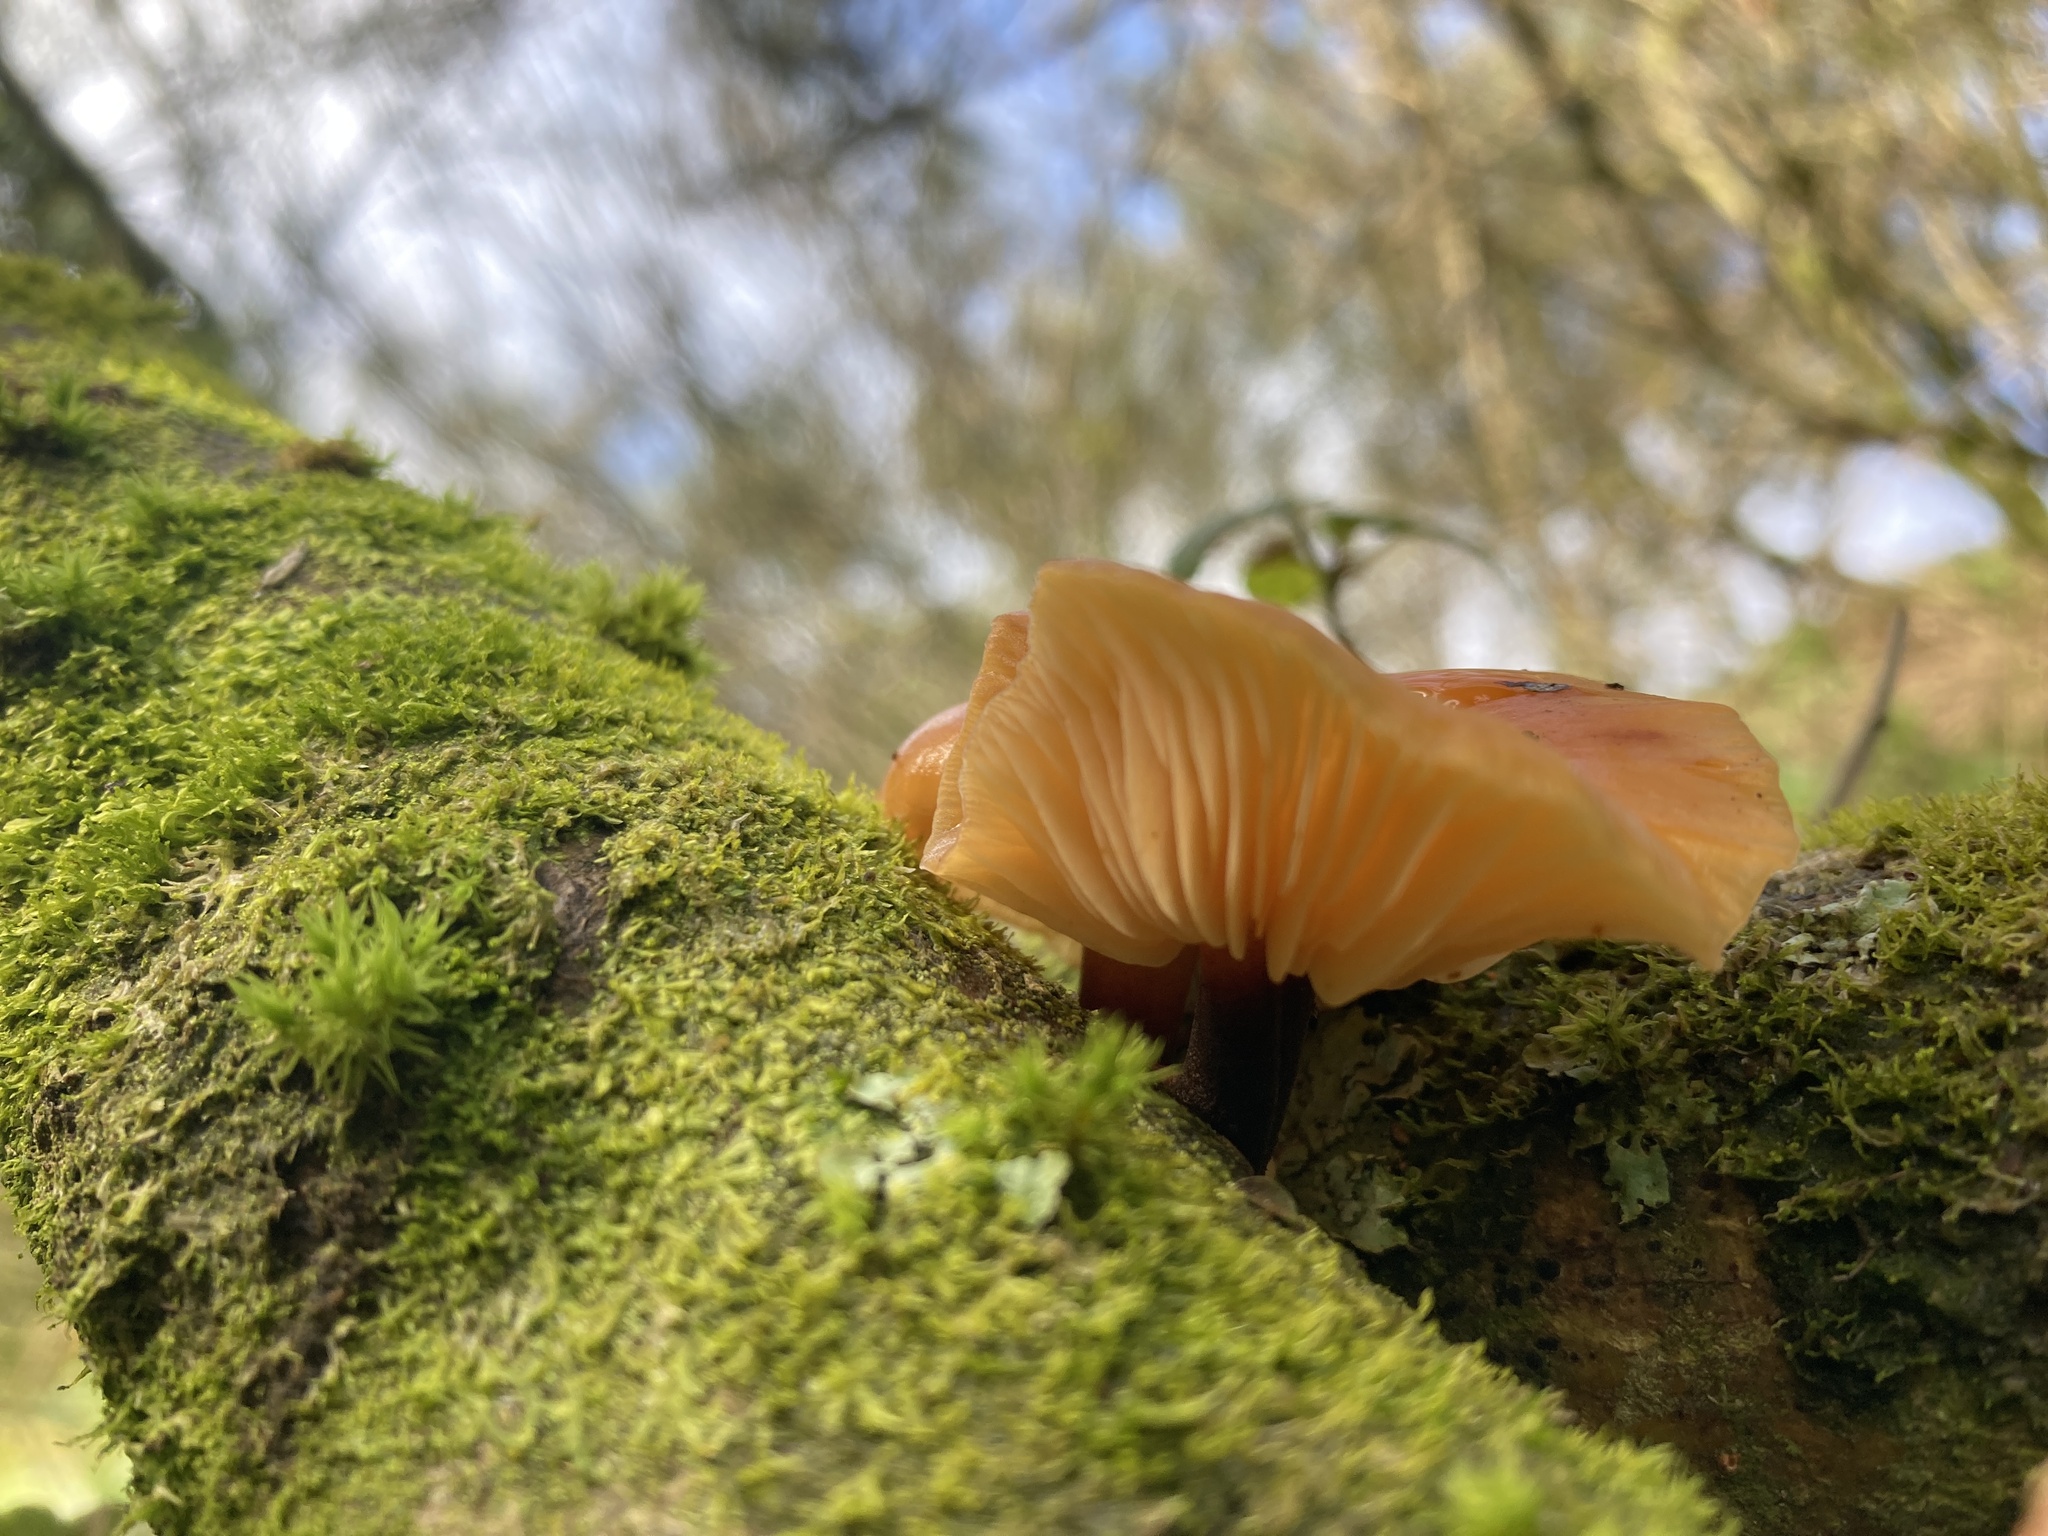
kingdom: Fungi
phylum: Basidiomycota
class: Agaricomycetes
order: Agaricales
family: Physalacriaceae
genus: Flammulina
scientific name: Flammulina
